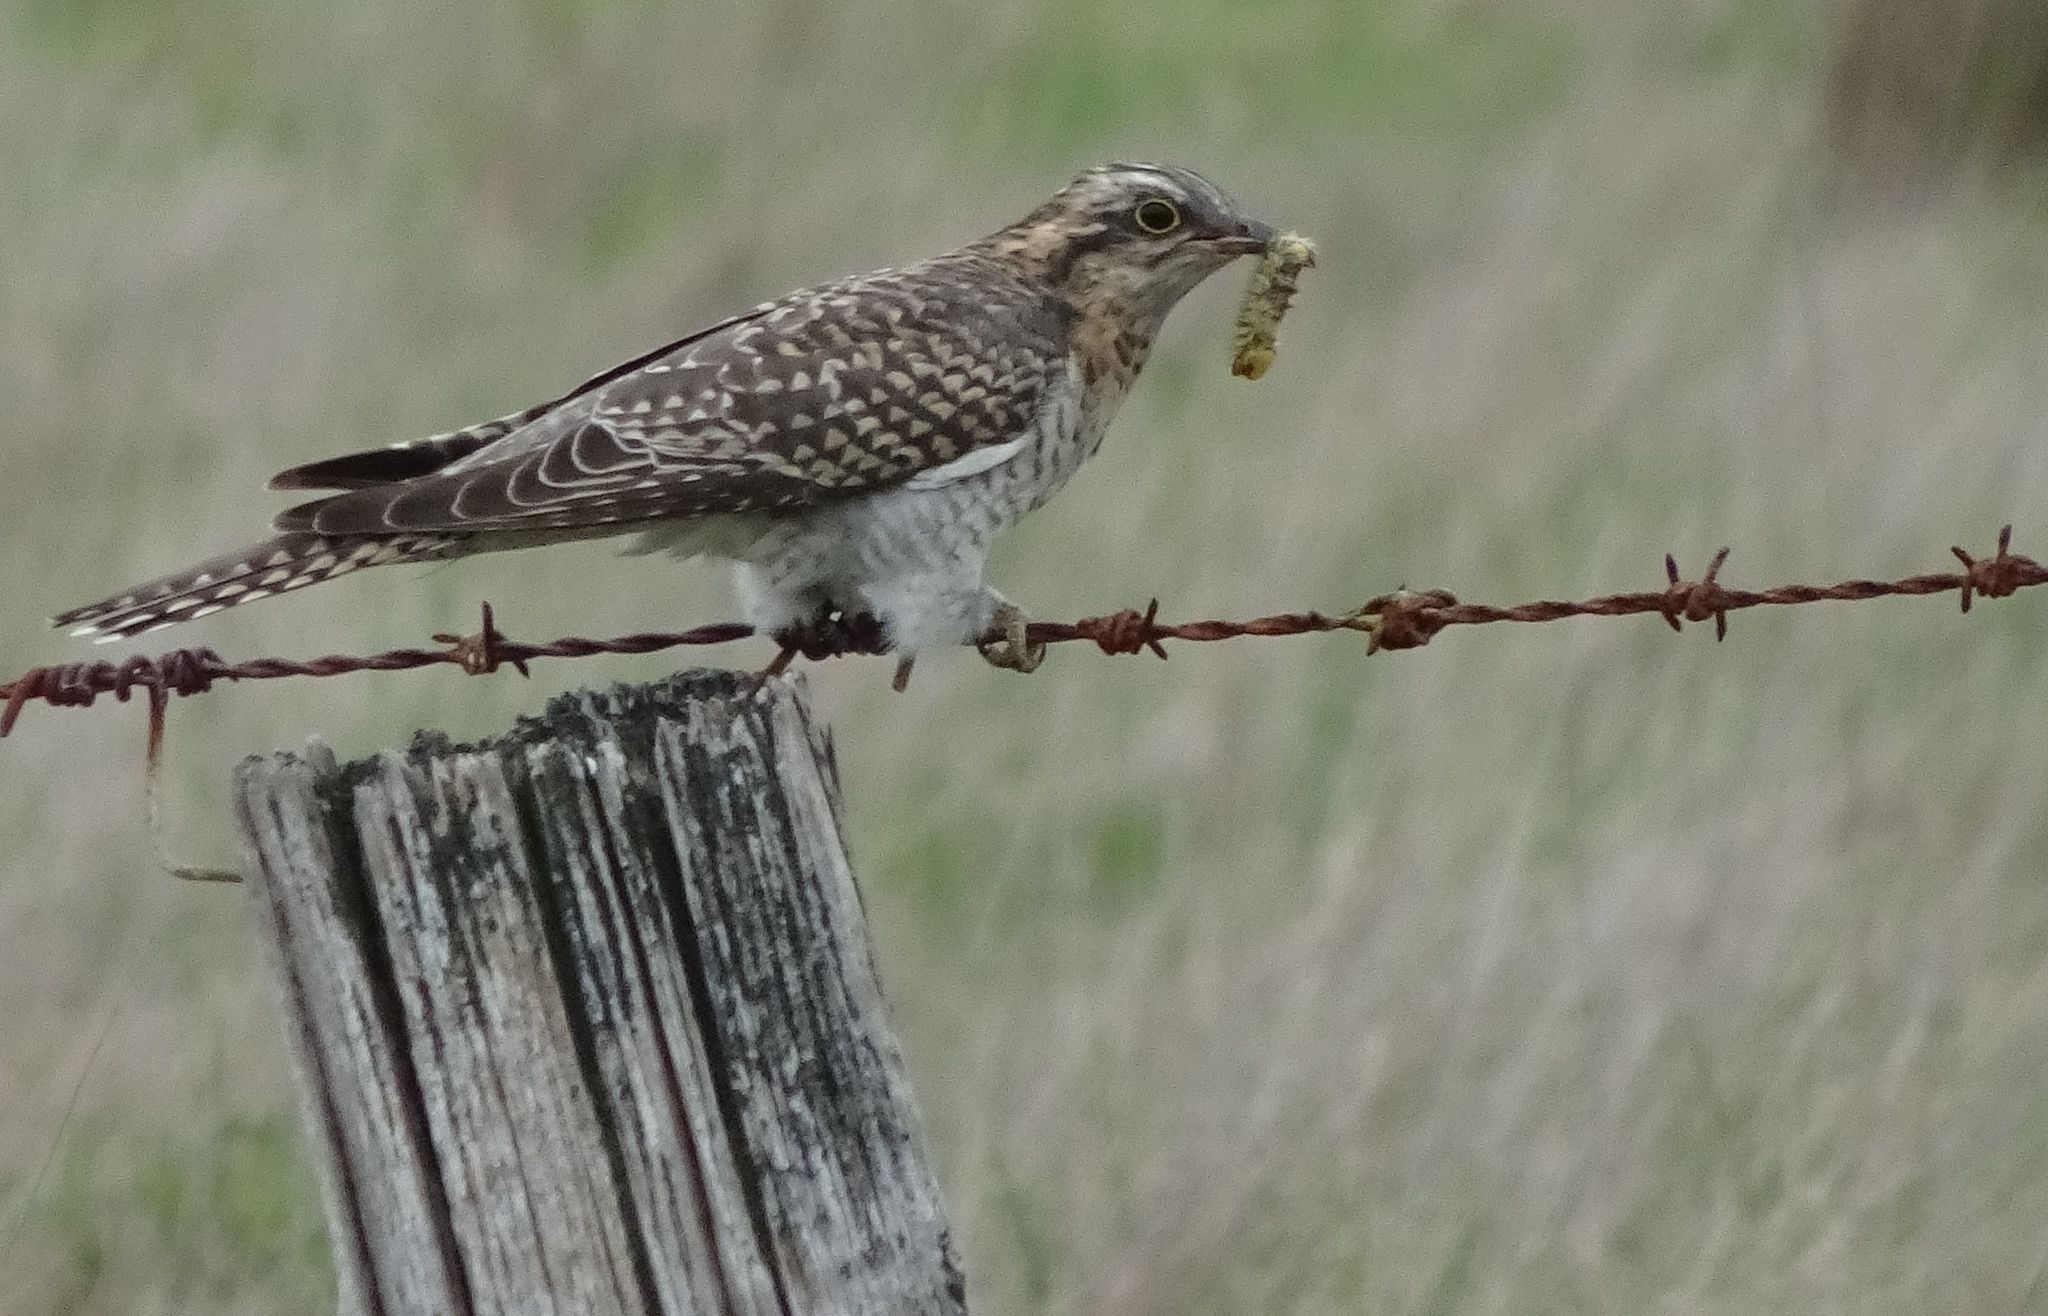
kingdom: Animalia
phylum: Chordata
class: Aves
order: Cuculiformes
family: Cuculidae
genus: Cuculus
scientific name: Cuculus pallidus
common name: Pallid cuckoo
